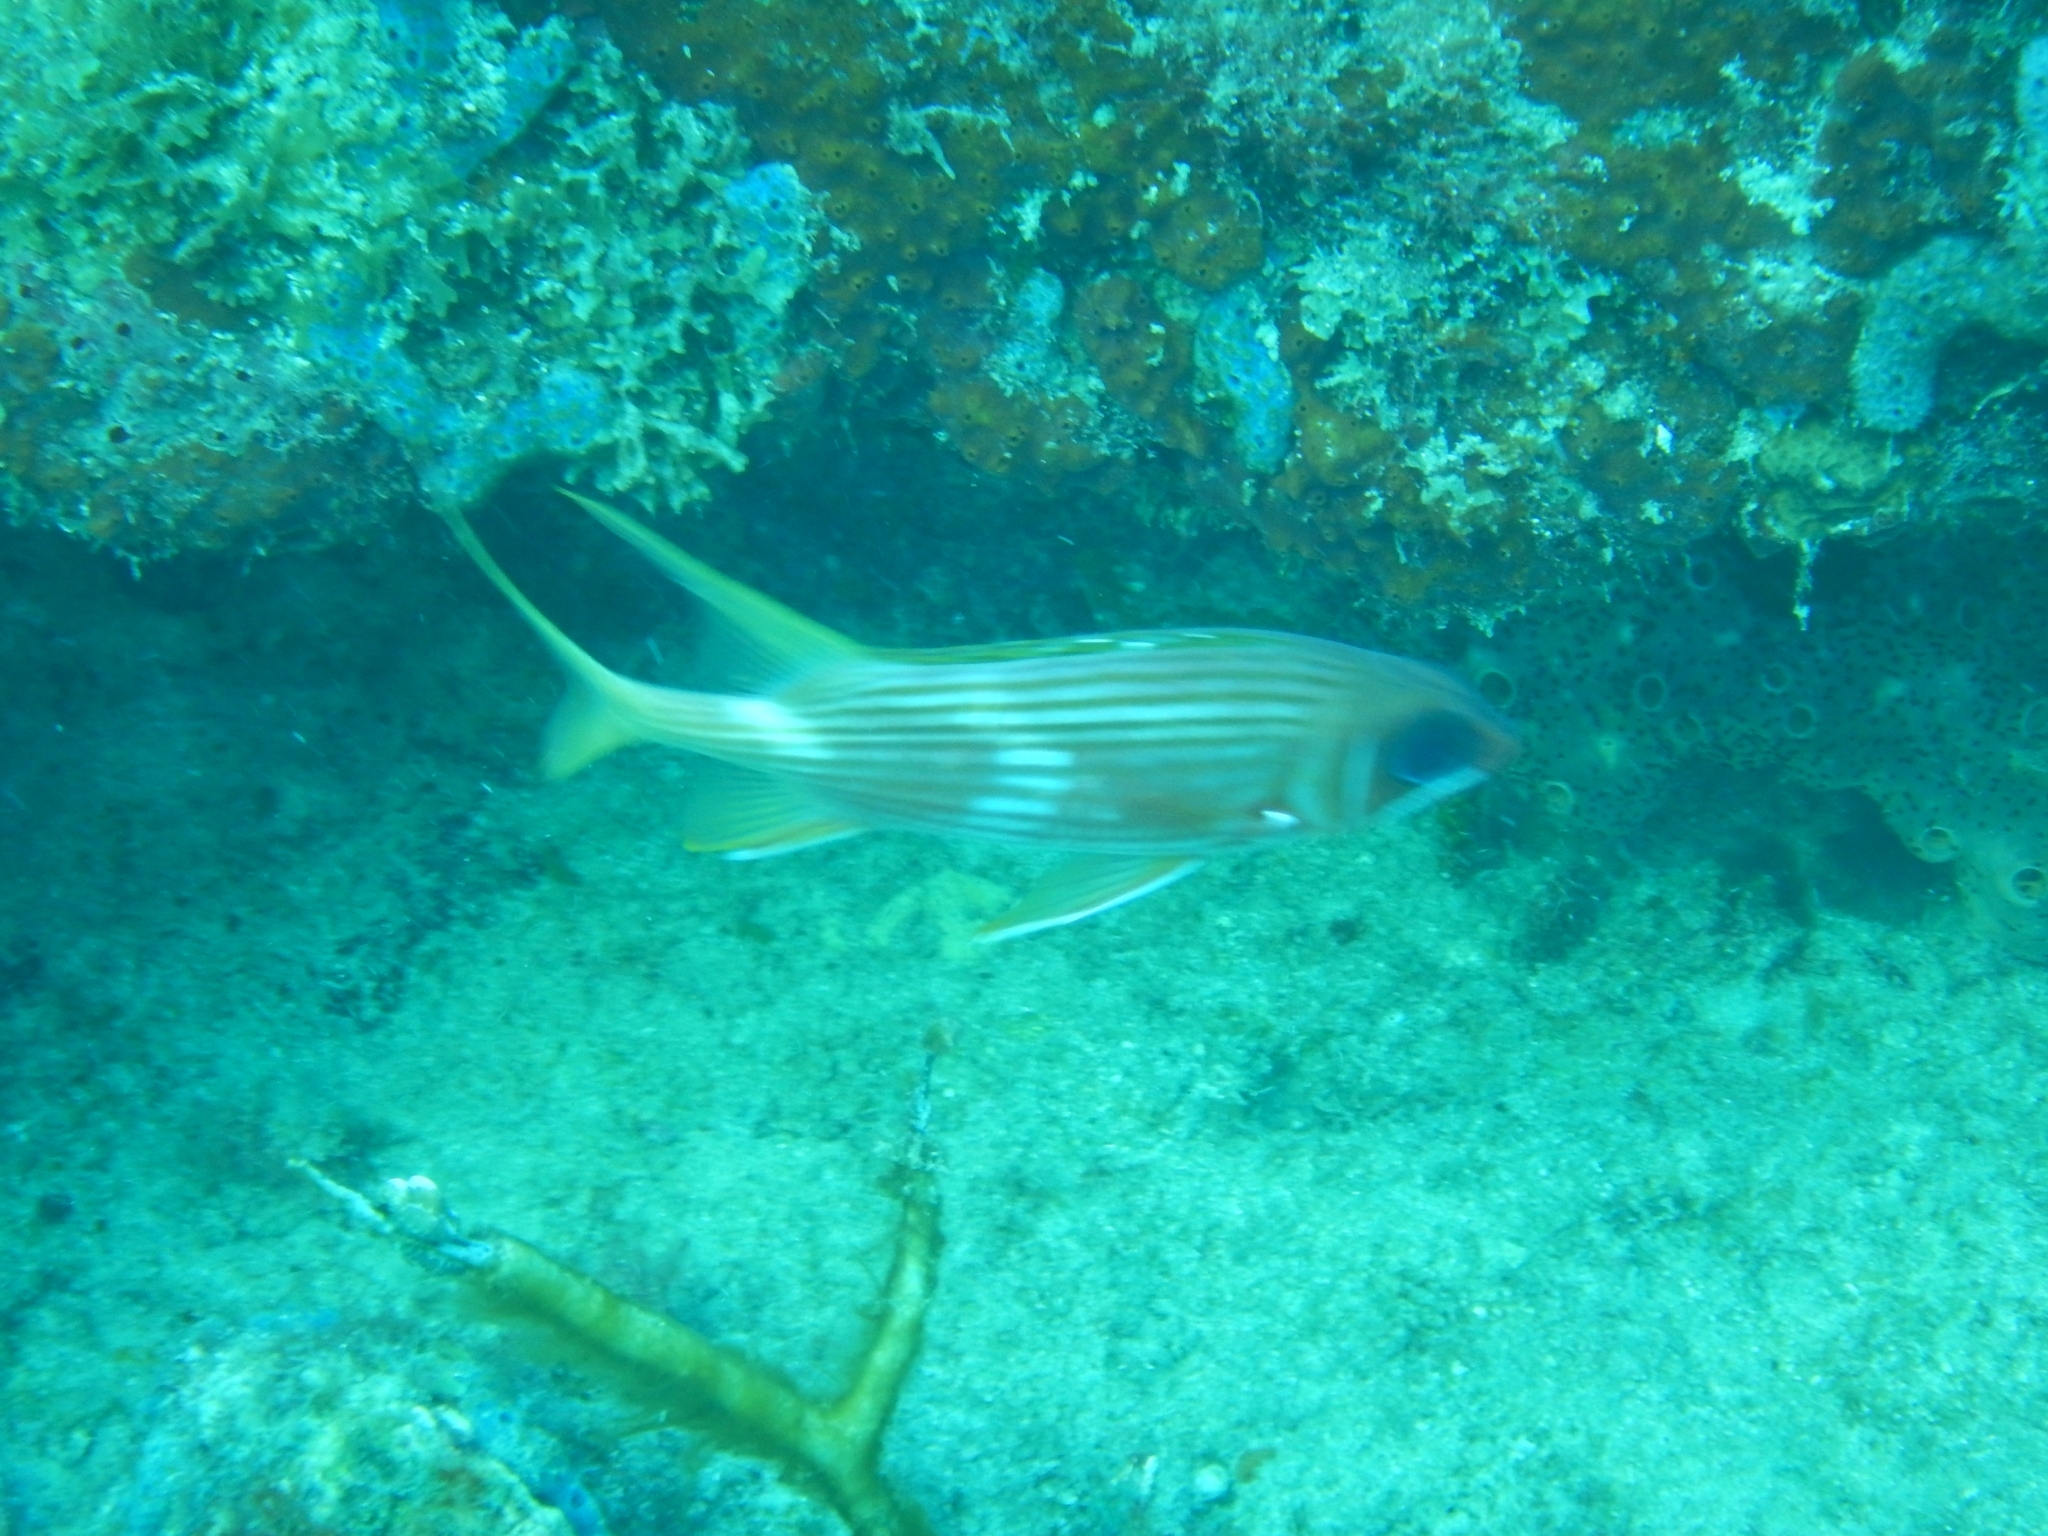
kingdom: Animalia
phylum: Chordata
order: Beryciformes
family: Holocentridae
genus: Holocentrus
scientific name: Holocentrus rufus
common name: Longspine squirrelfish
